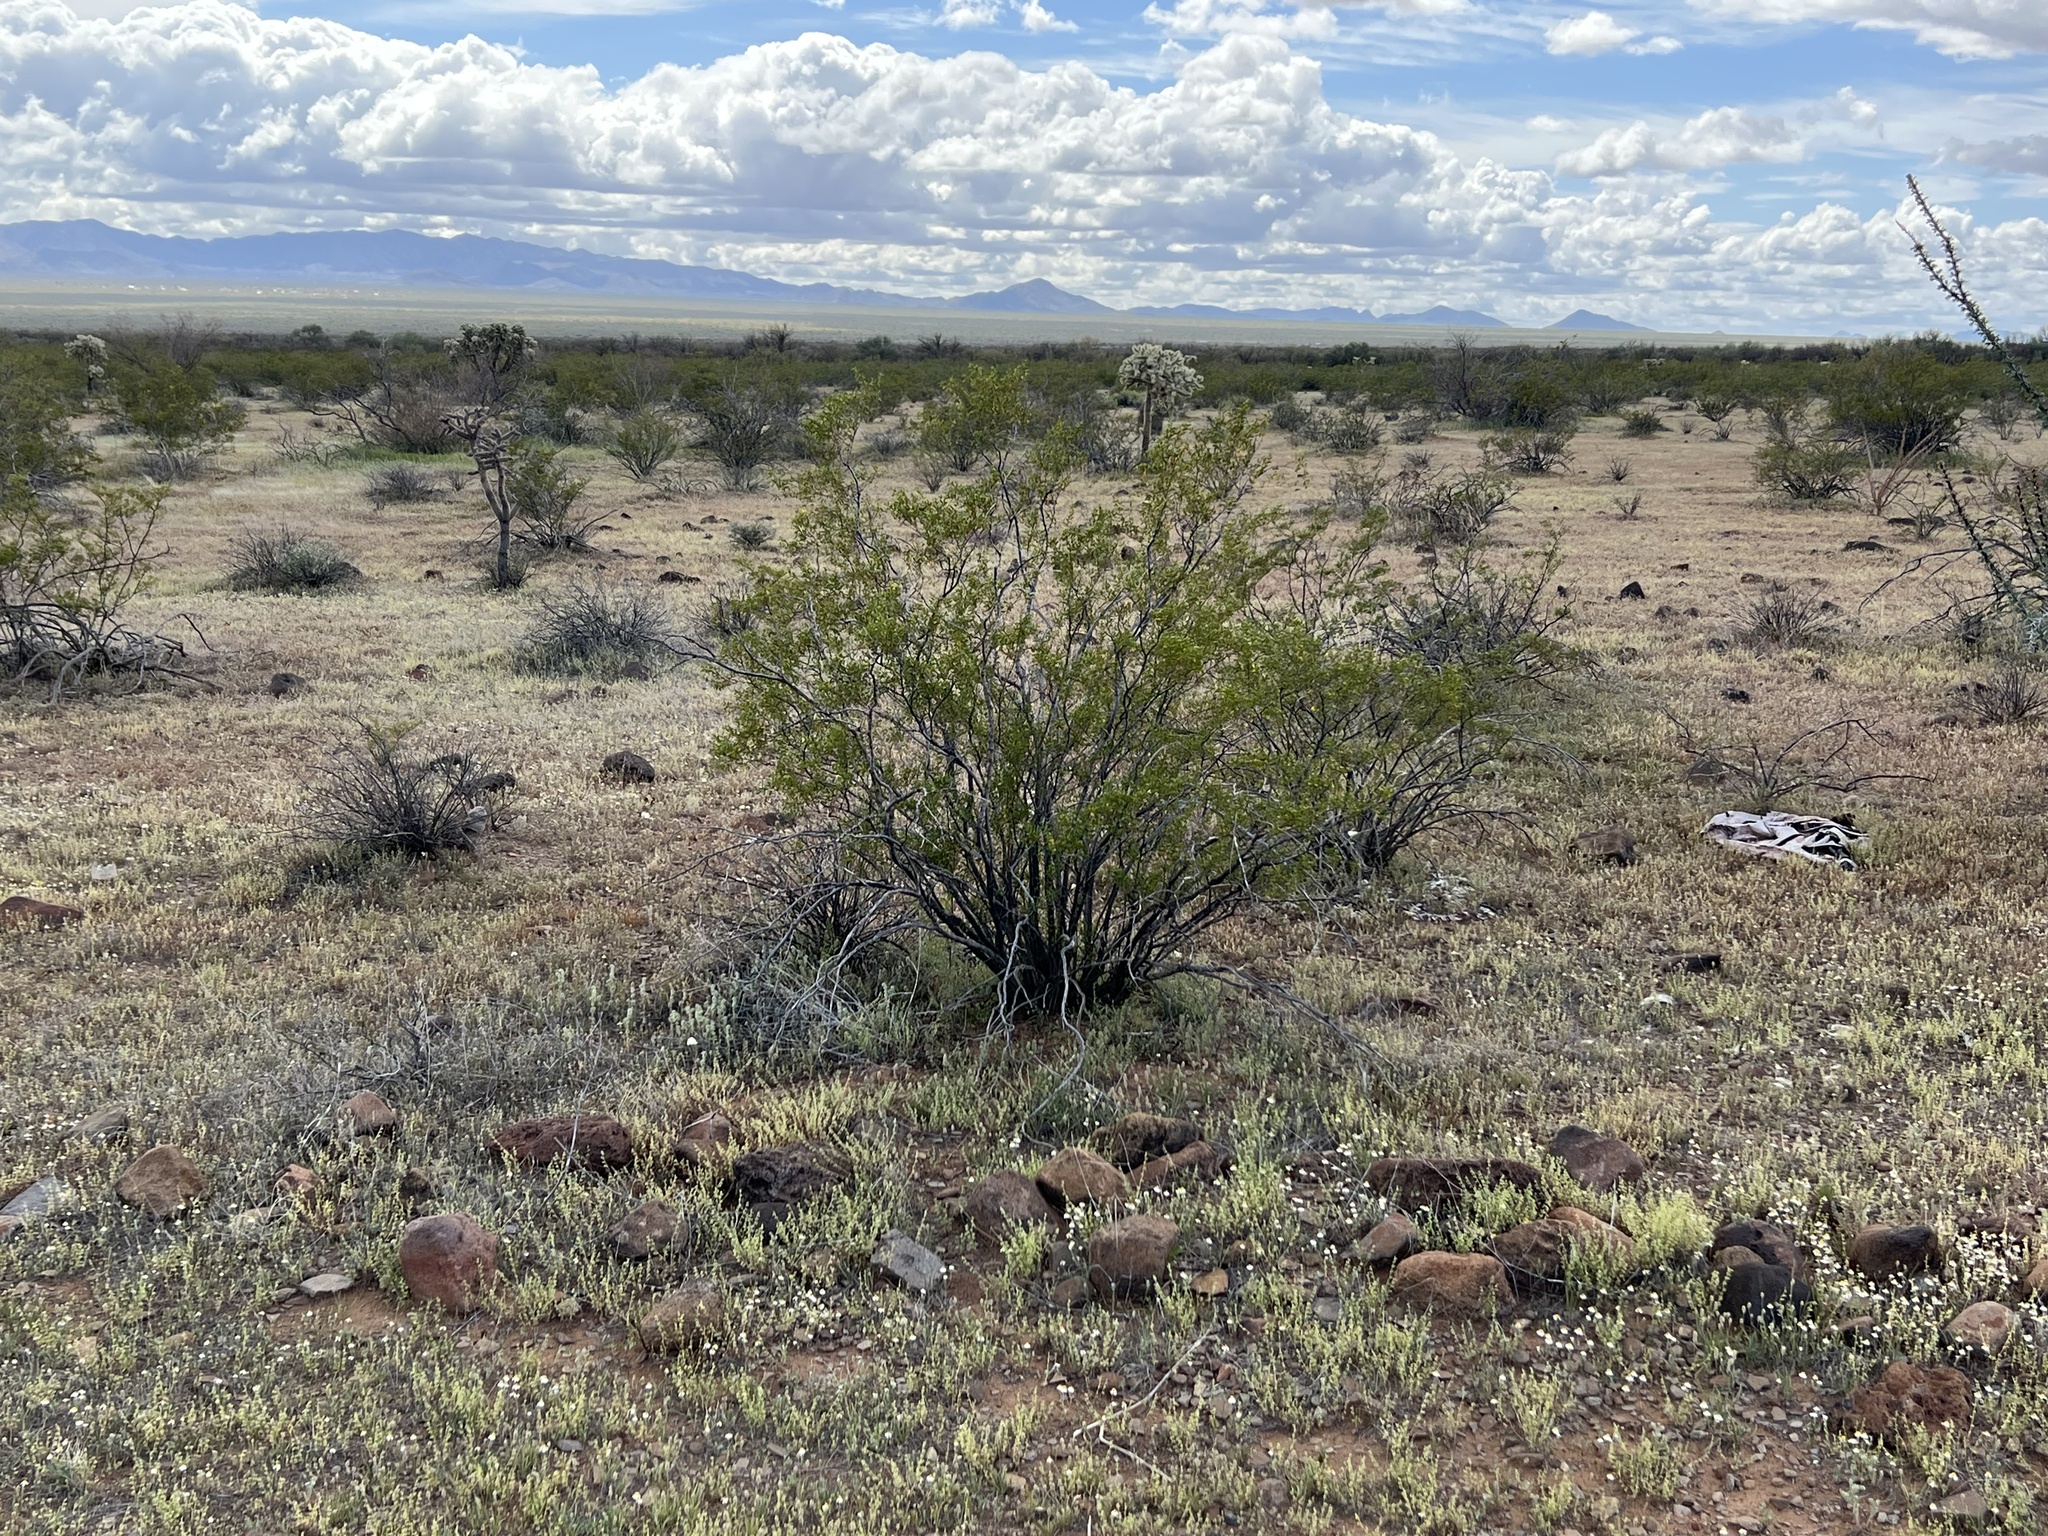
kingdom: Plantae
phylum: Tracheophyta
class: Magnoliopsida
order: Zygophyllales
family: Zygophyllaceae
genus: Larrea
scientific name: Larrea tridentata
